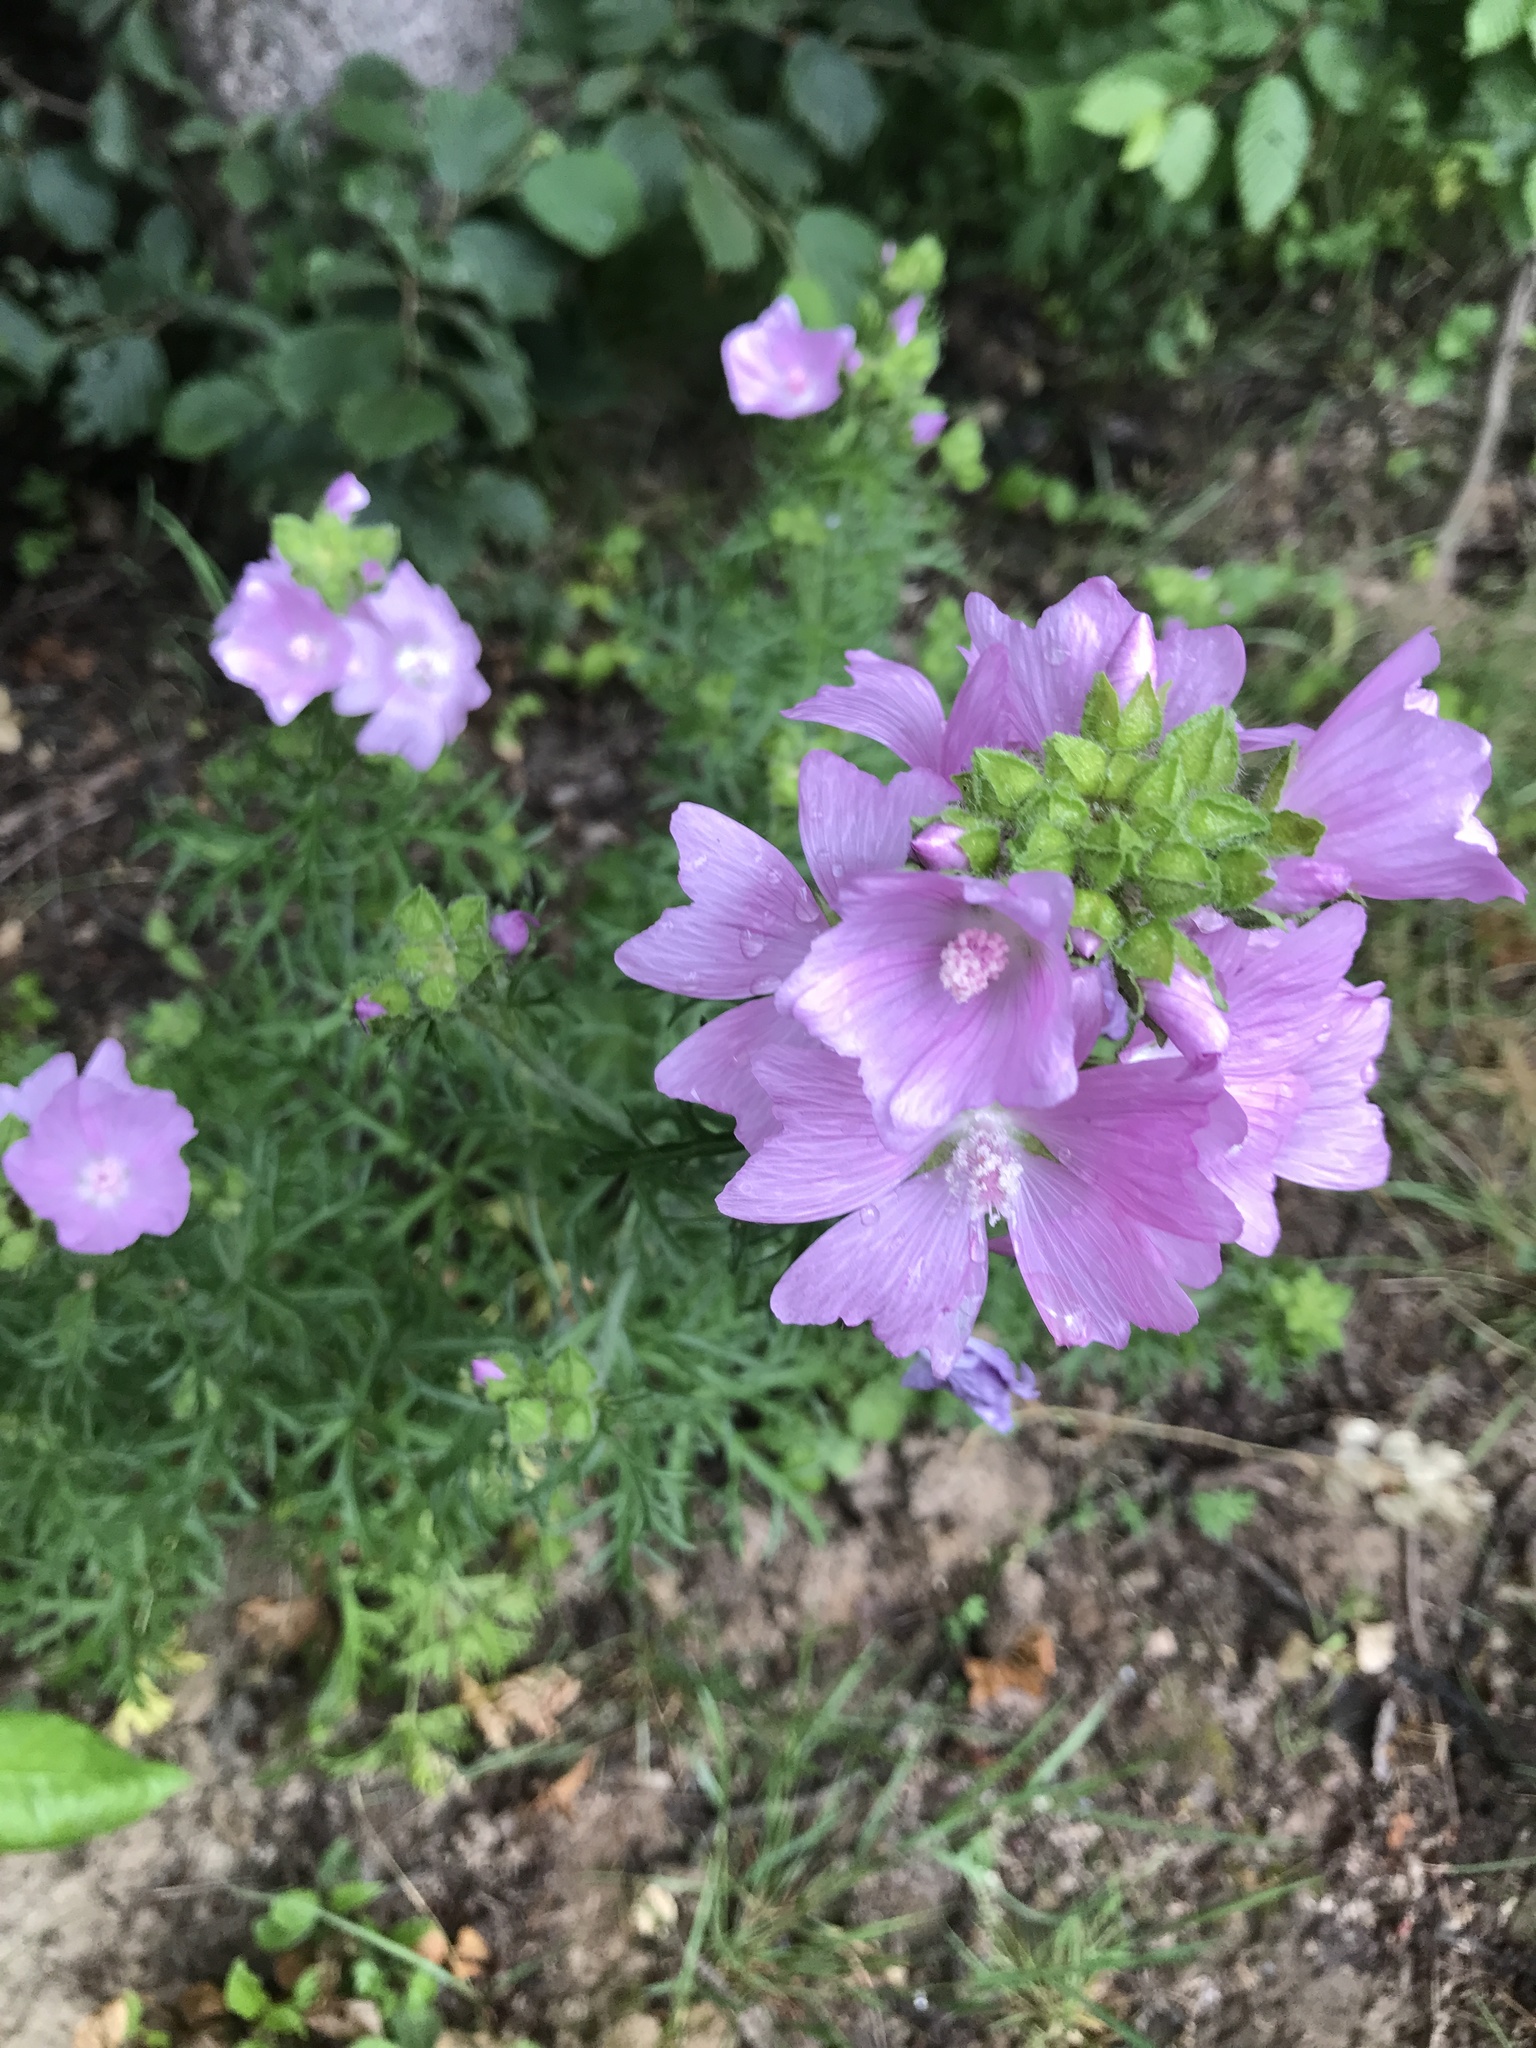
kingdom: Plantae
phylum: Tracheophyta
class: Magnoliopsida
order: Malvales
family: Malvaceae
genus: Malva
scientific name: Malva moschata
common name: Musk mallow
